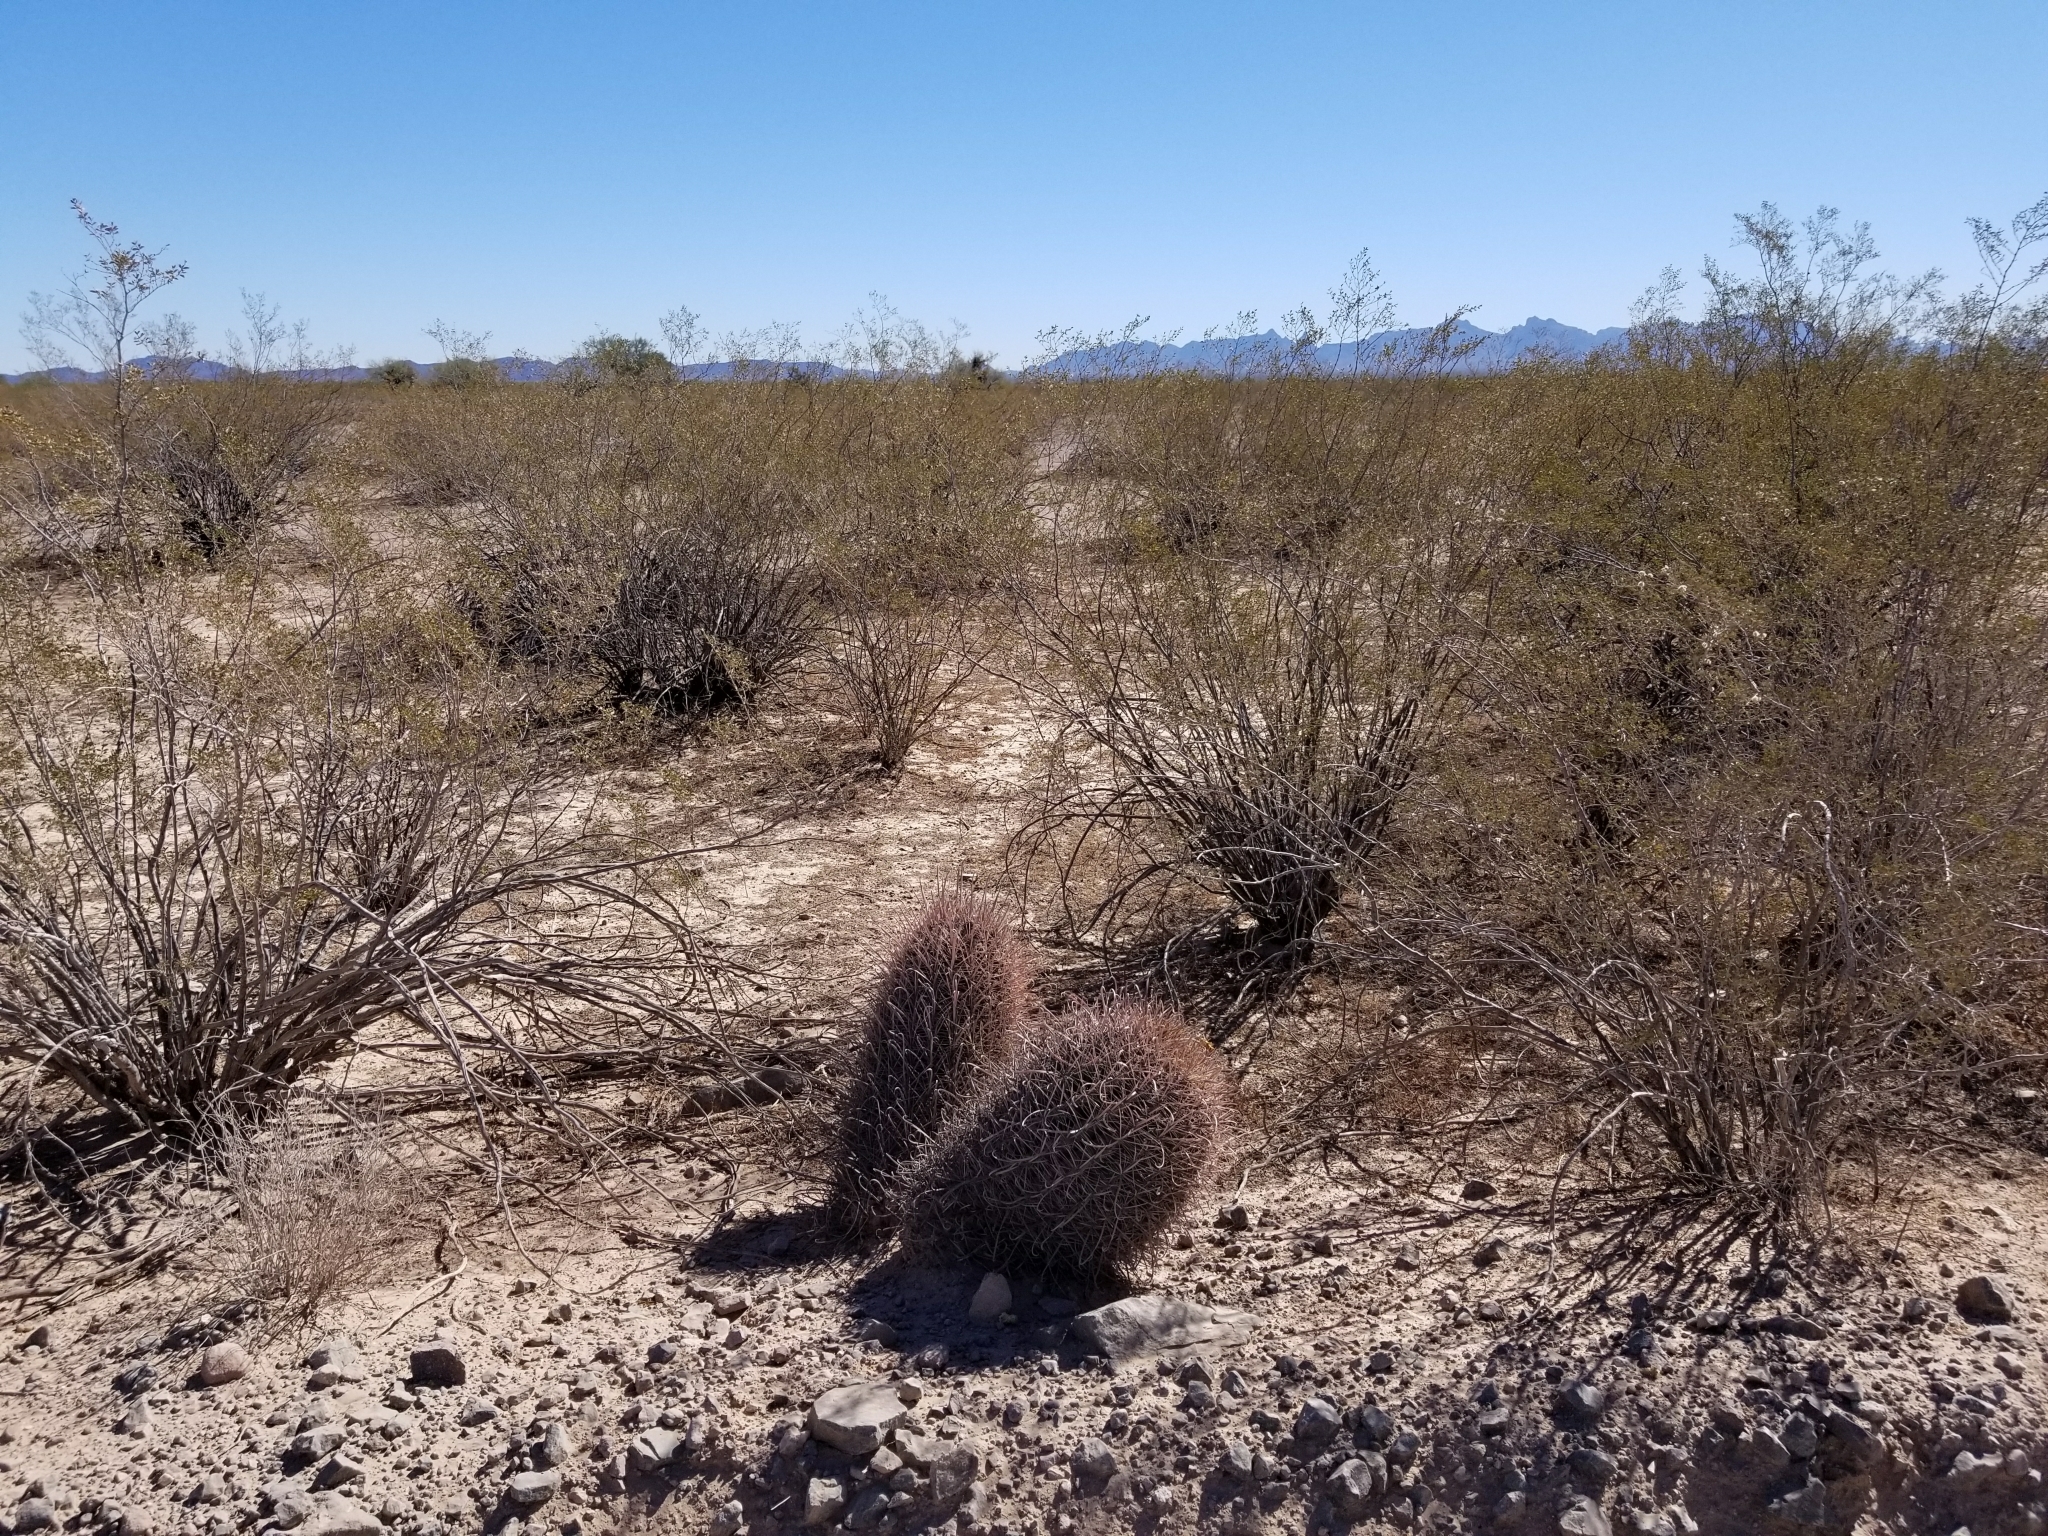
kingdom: Plantae
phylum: Tracheophyta
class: Magnoliopsida
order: Caryophyllales
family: Cactaceae
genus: Ferocactus
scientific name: Ferocactus cylindraceus
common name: California barrel cactus
